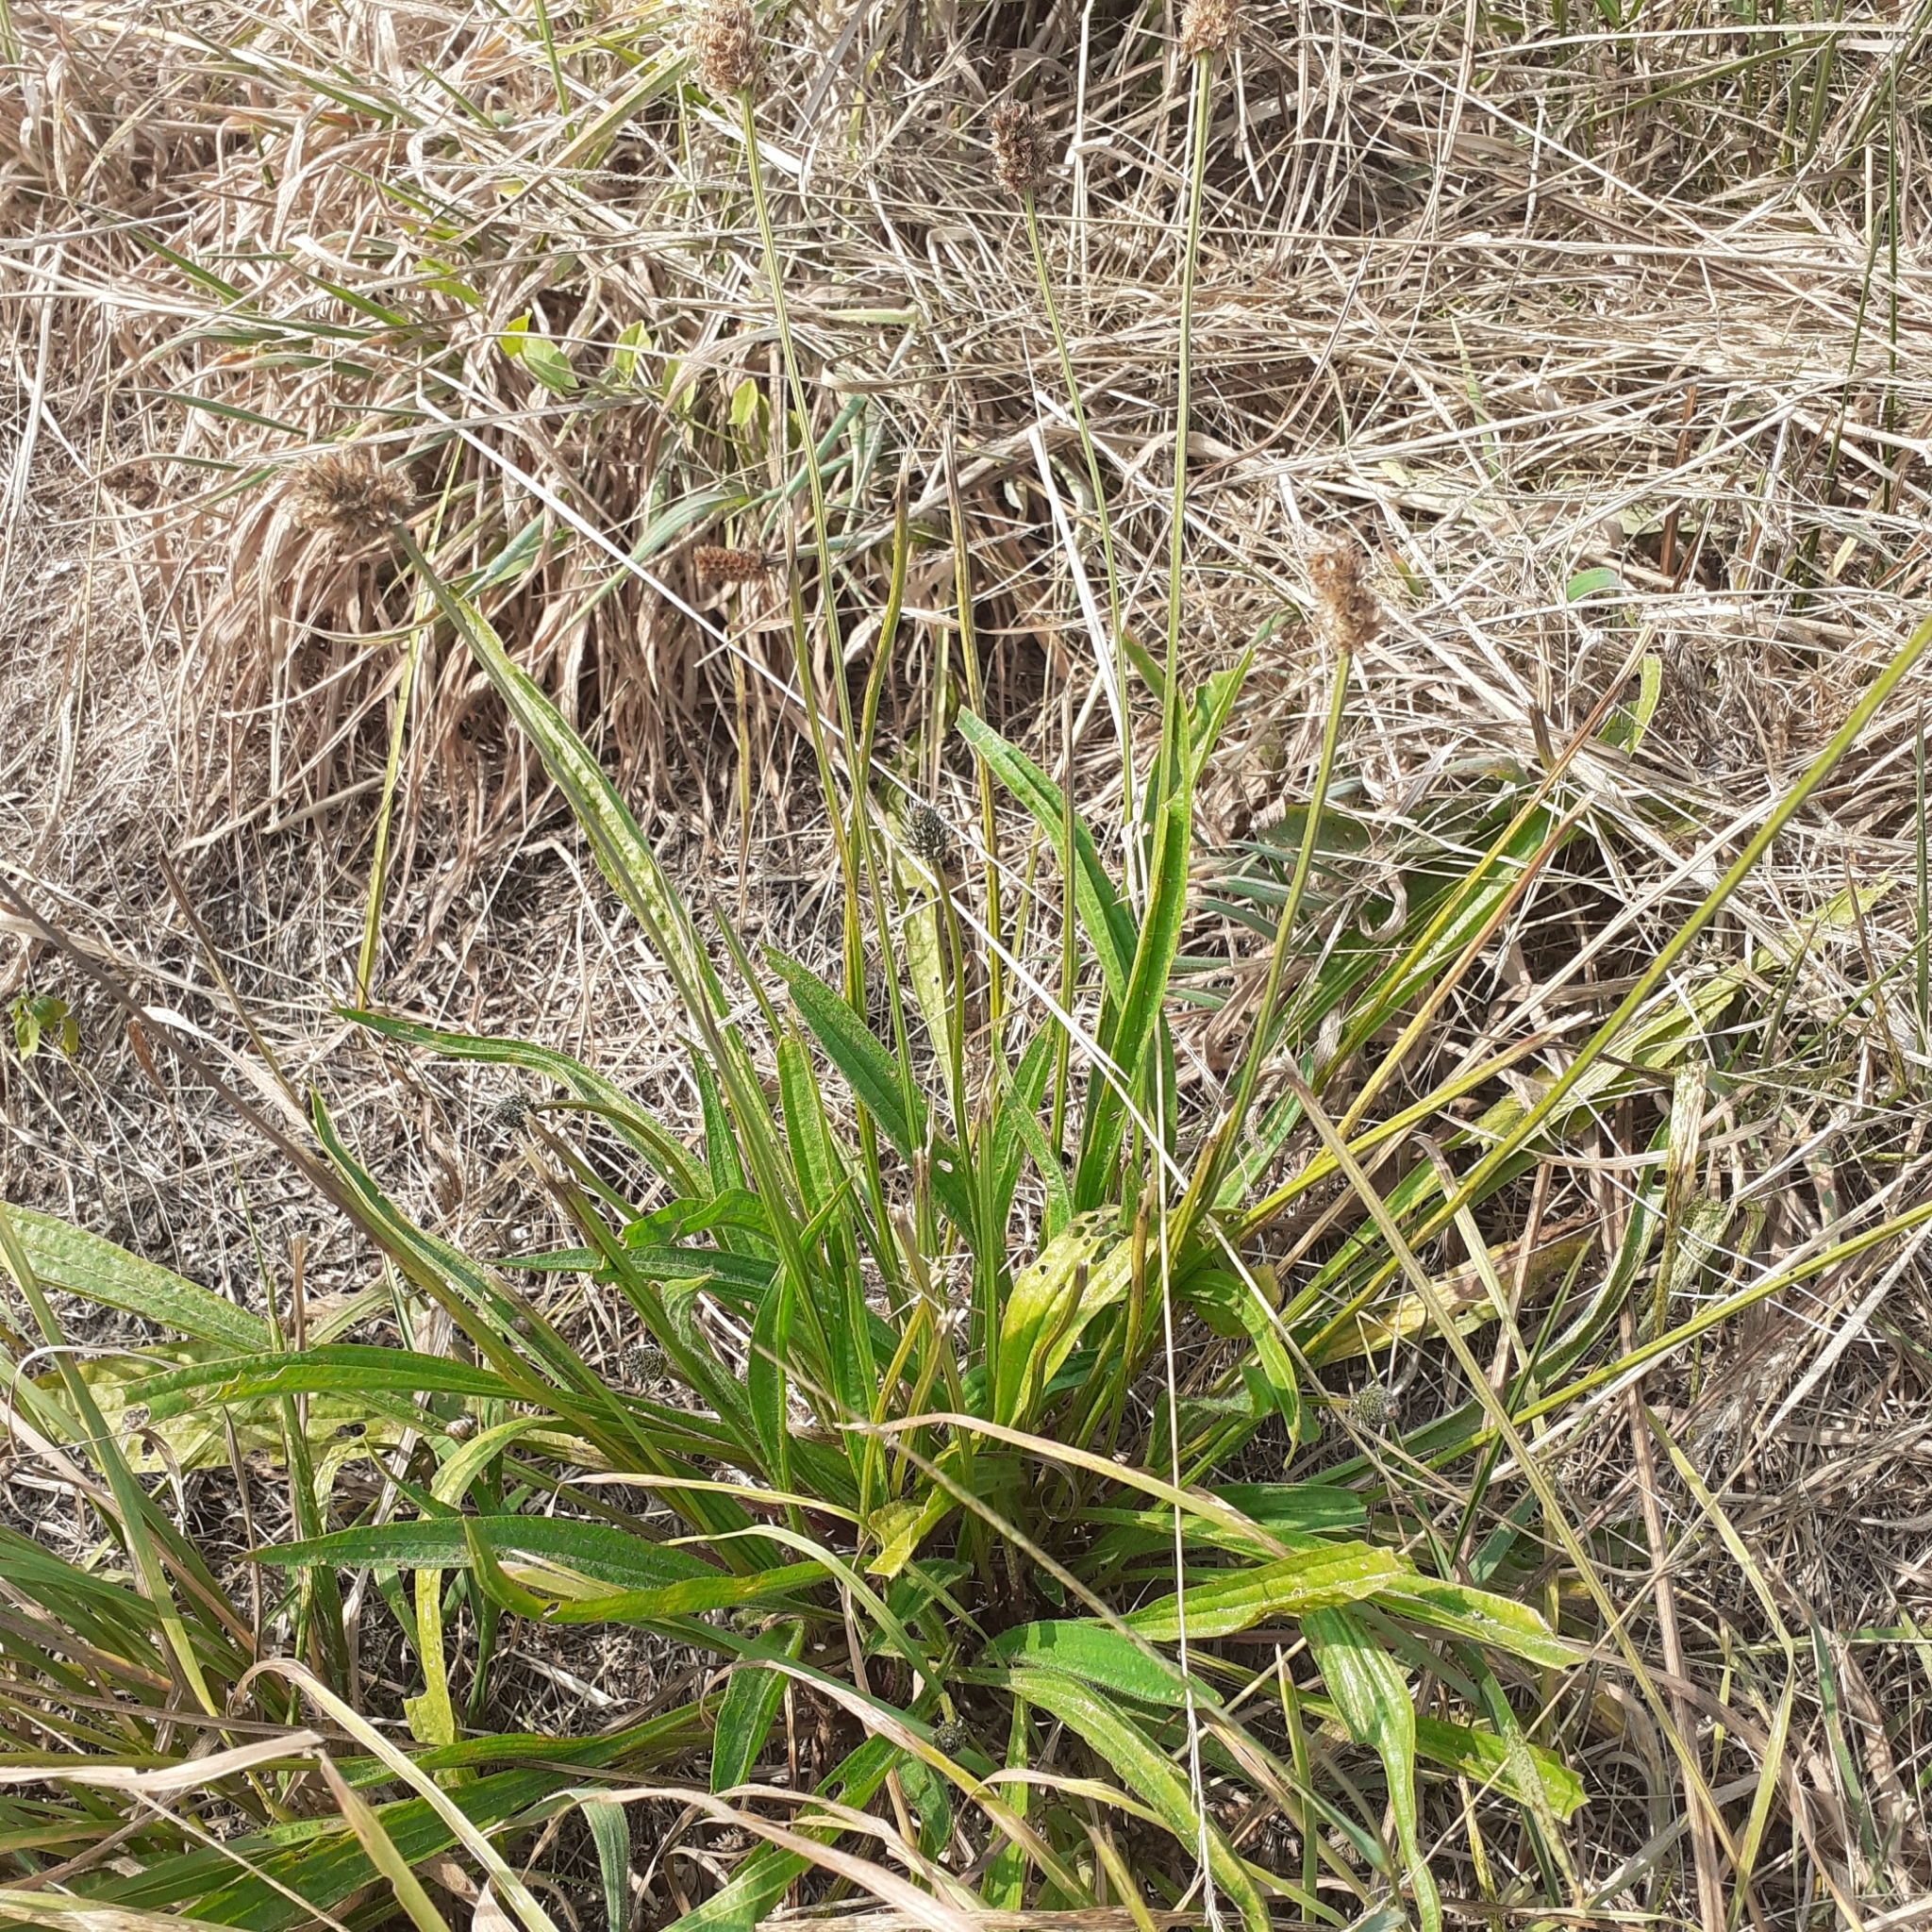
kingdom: Plantae
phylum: Tracheophyta
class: Magnoliopsida
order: Lamiales
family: Plantaginaceae
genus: Plantago
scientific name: Plantago lanceolata
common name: Ribwort plantain
